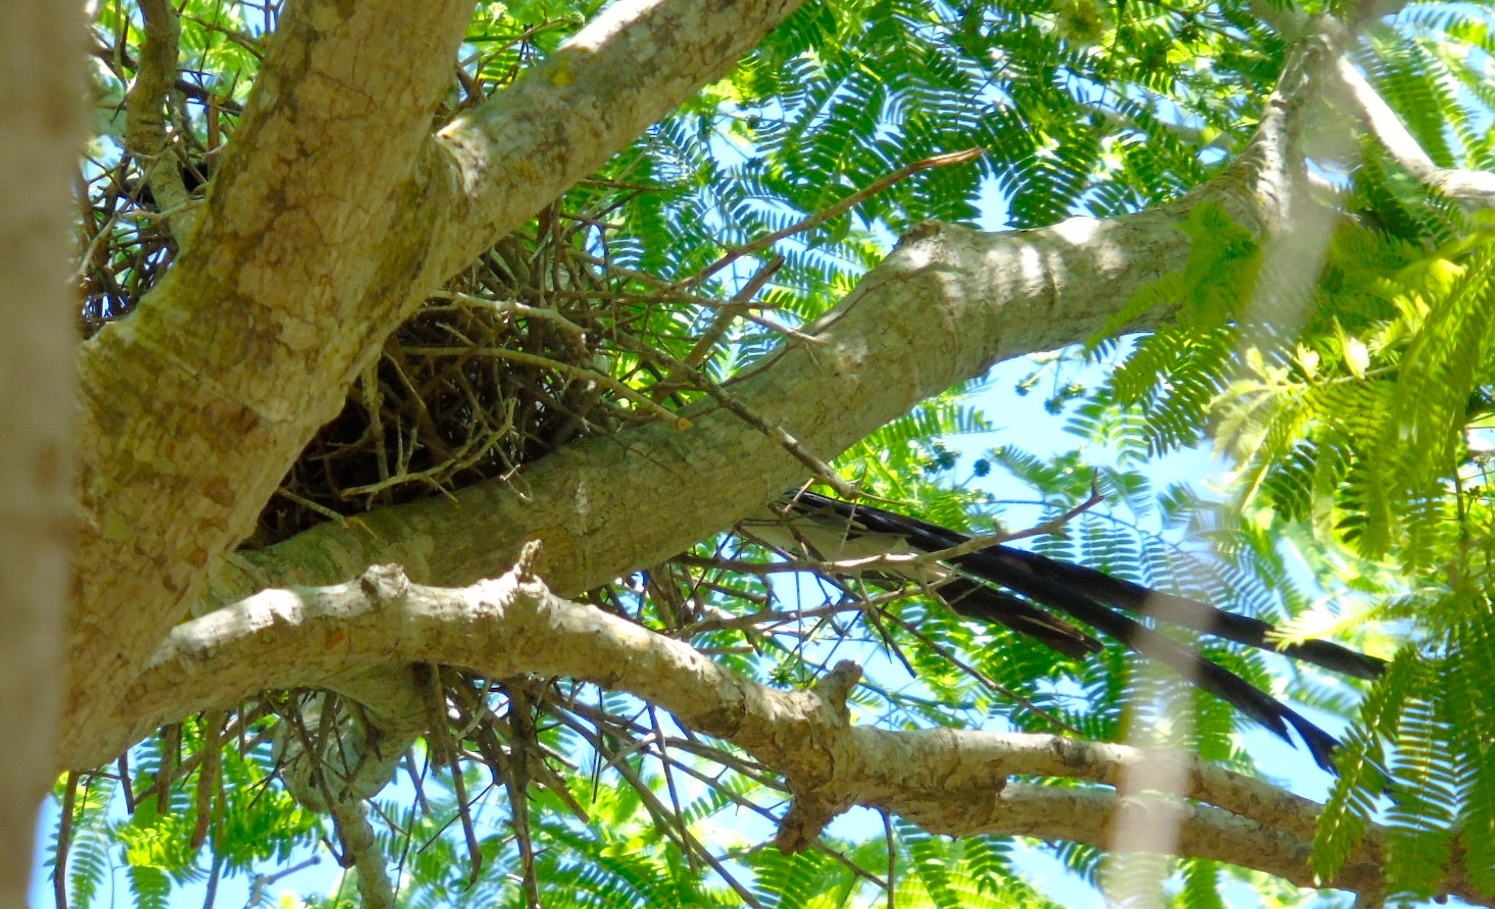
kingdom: Animalia
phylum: Chordata
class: Aves
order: Passeriformes
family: Corvidae
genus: Calocitta
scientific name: Calocitta colliei
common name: Black-throated magpie-jay
